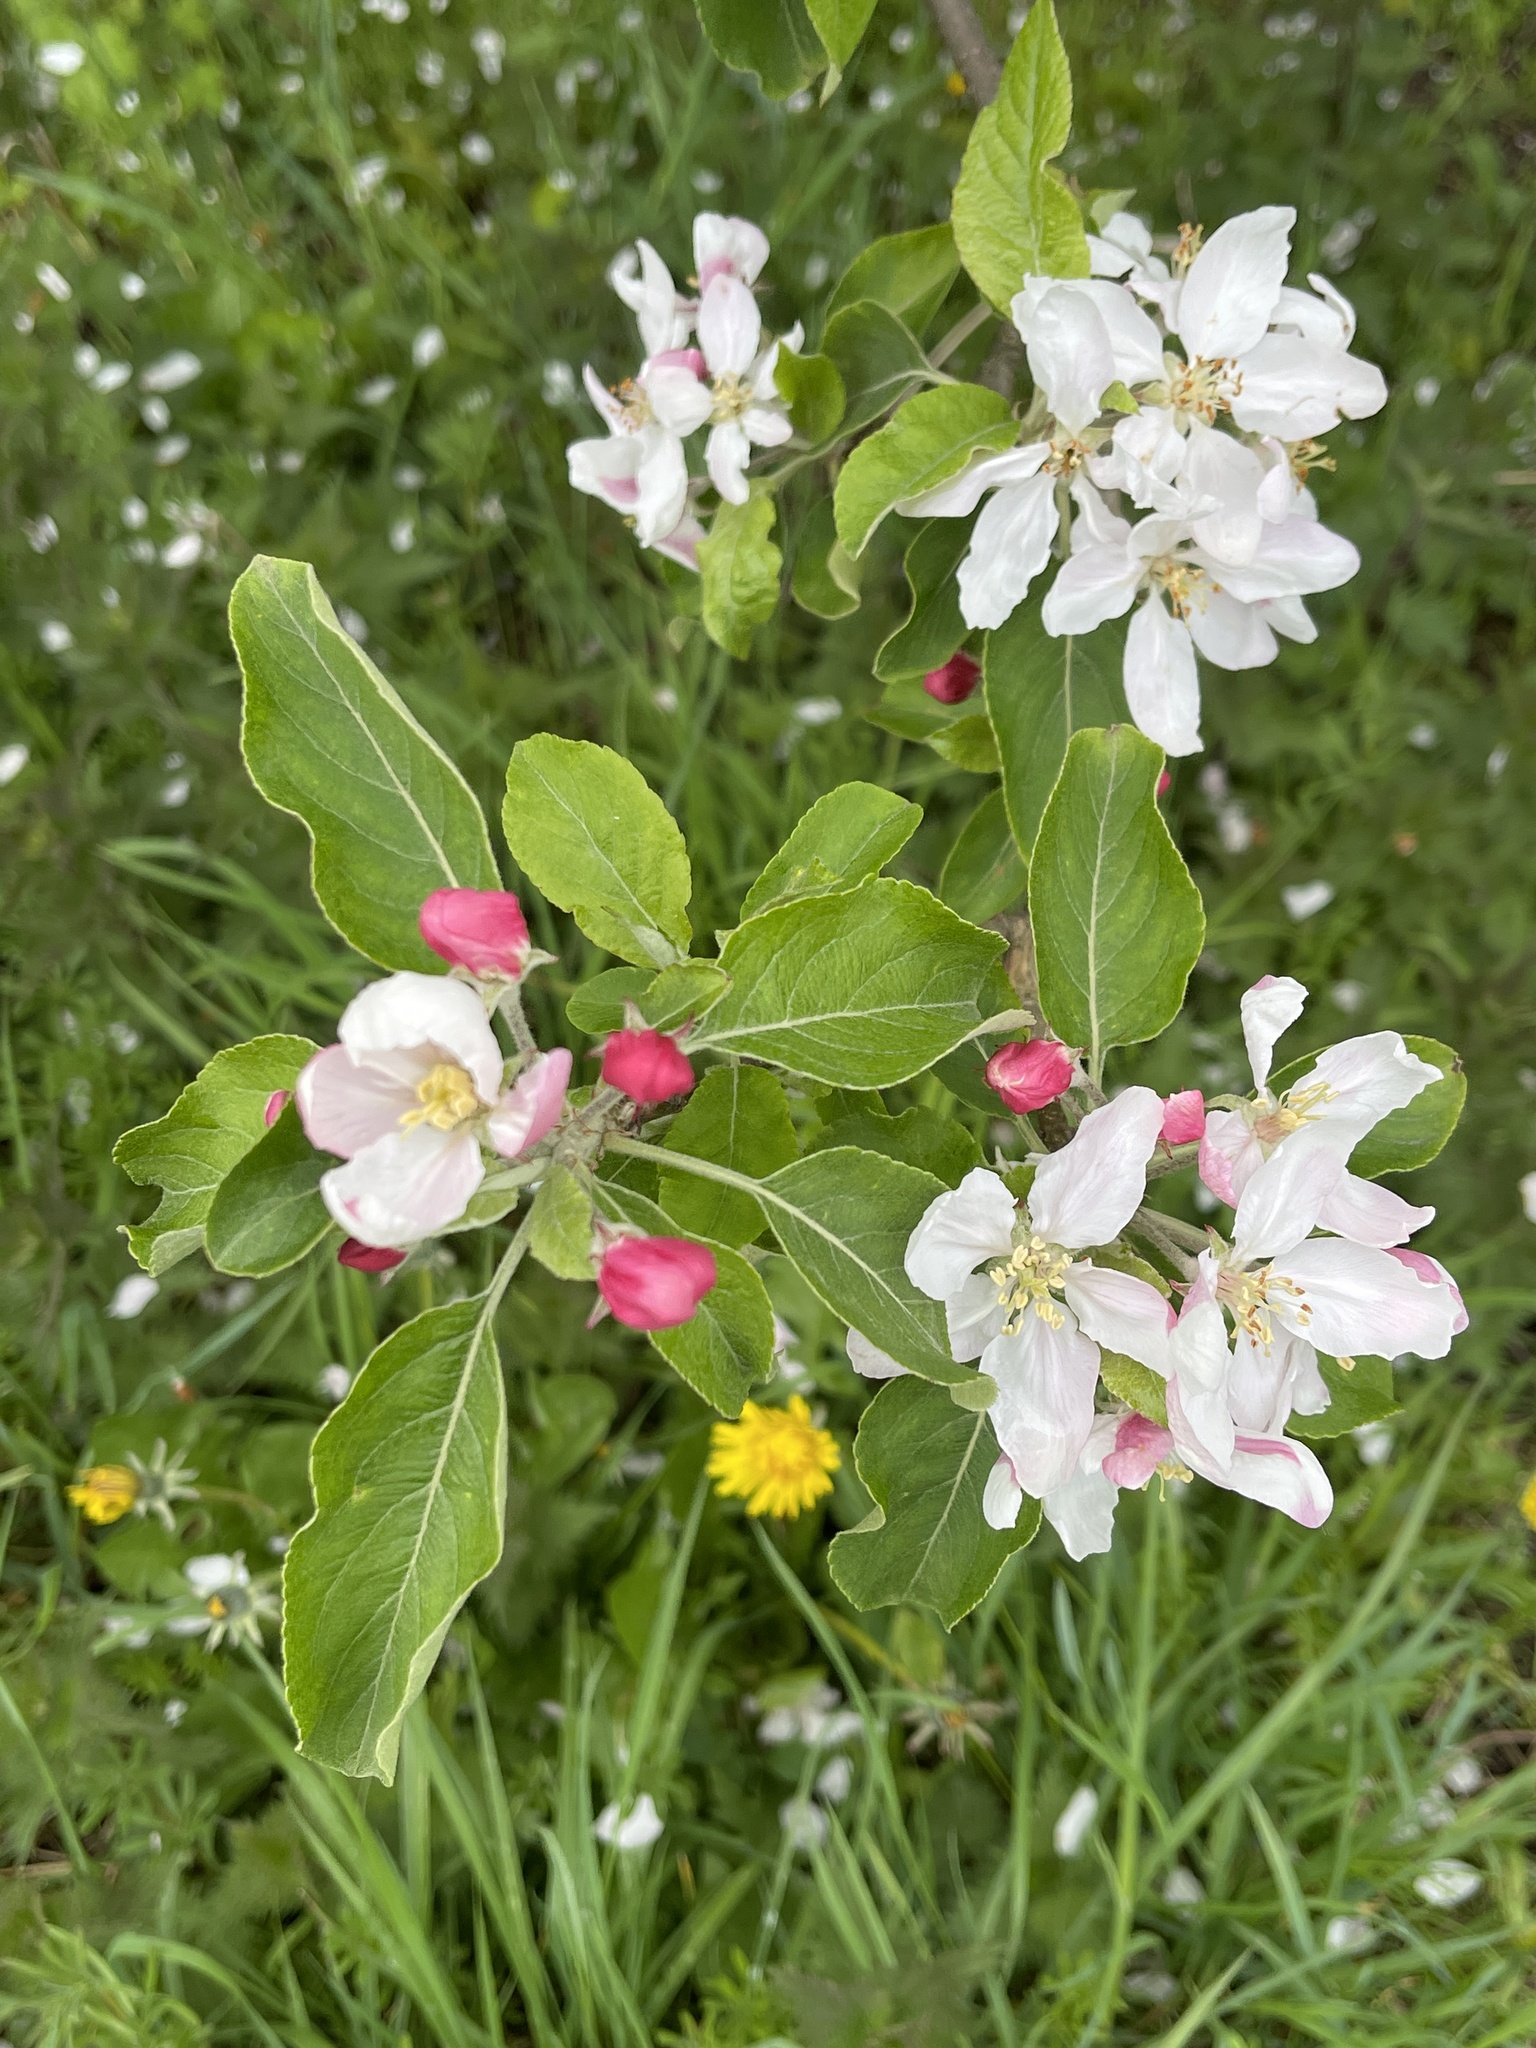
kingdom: Plantae
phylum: Tracheophyta
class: Magnoliopsida
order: Rosales
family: Rosaceae
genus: Malus
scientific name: Malus domestica
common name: Apple
